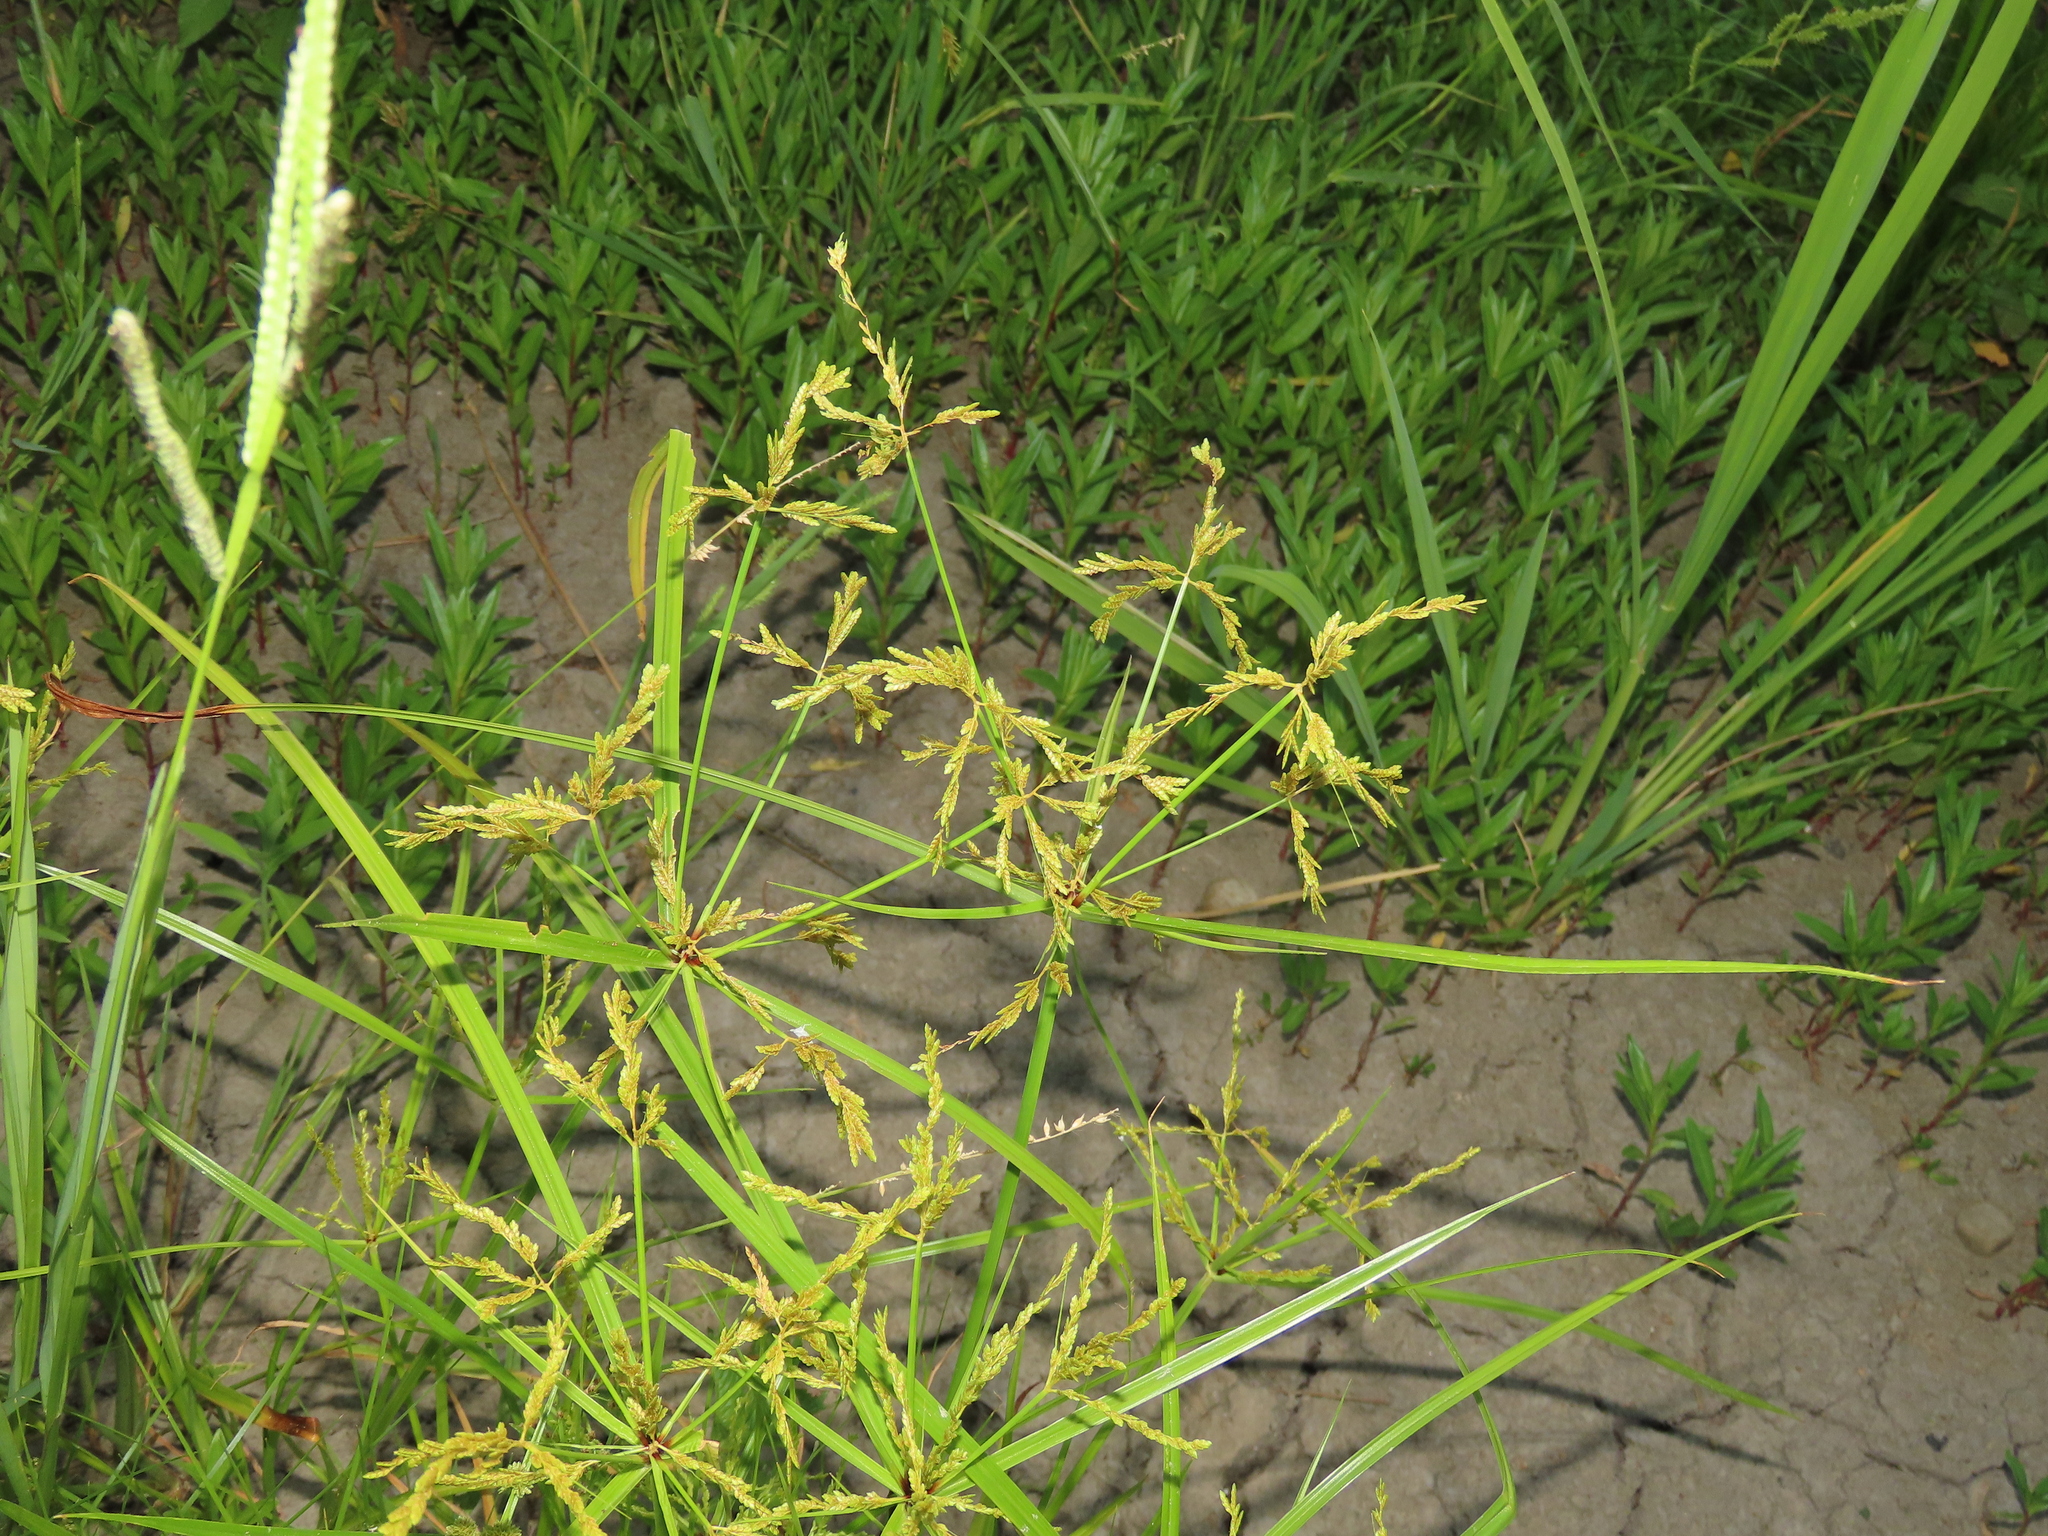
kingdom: Plantae
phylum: Tracheophyta
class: Liliopsida
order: Poales
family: Cyperaceae
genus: Cyperus
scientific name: Cyperus iria
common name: Ricefield flatsedge
